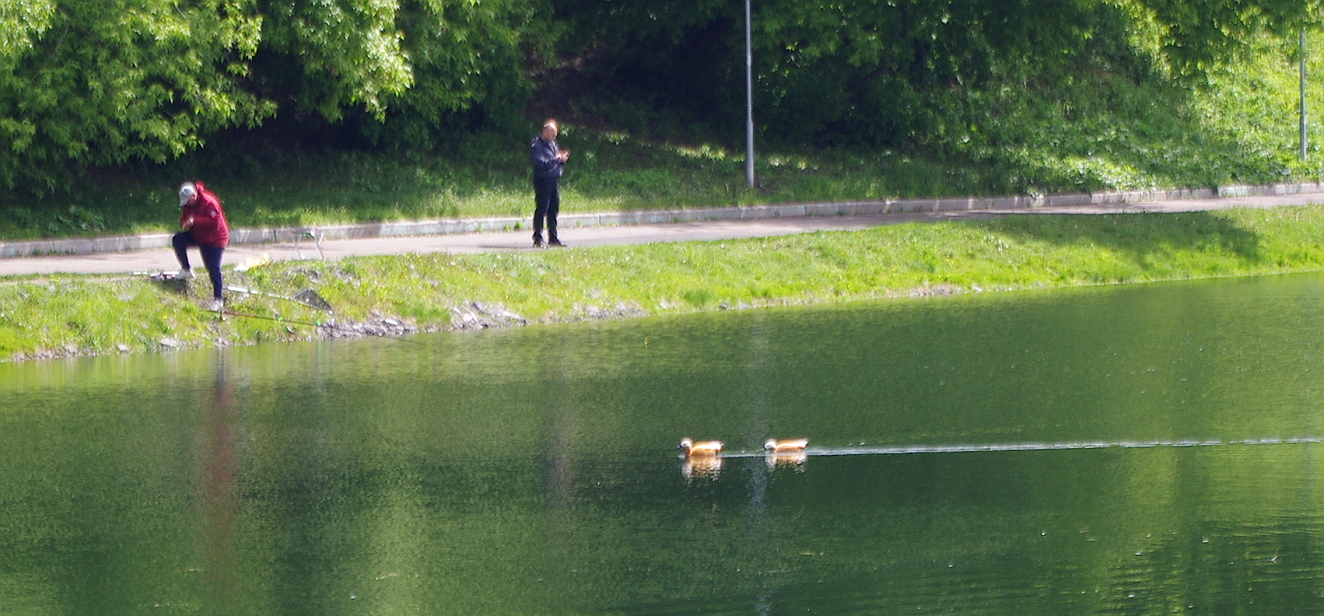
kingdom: Animalia
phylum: Chordata
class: Aves
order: Anseriformes
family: Anatidae
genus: Tadorna
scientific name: Tadorna ferruginea
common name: Ruddy shelduck
